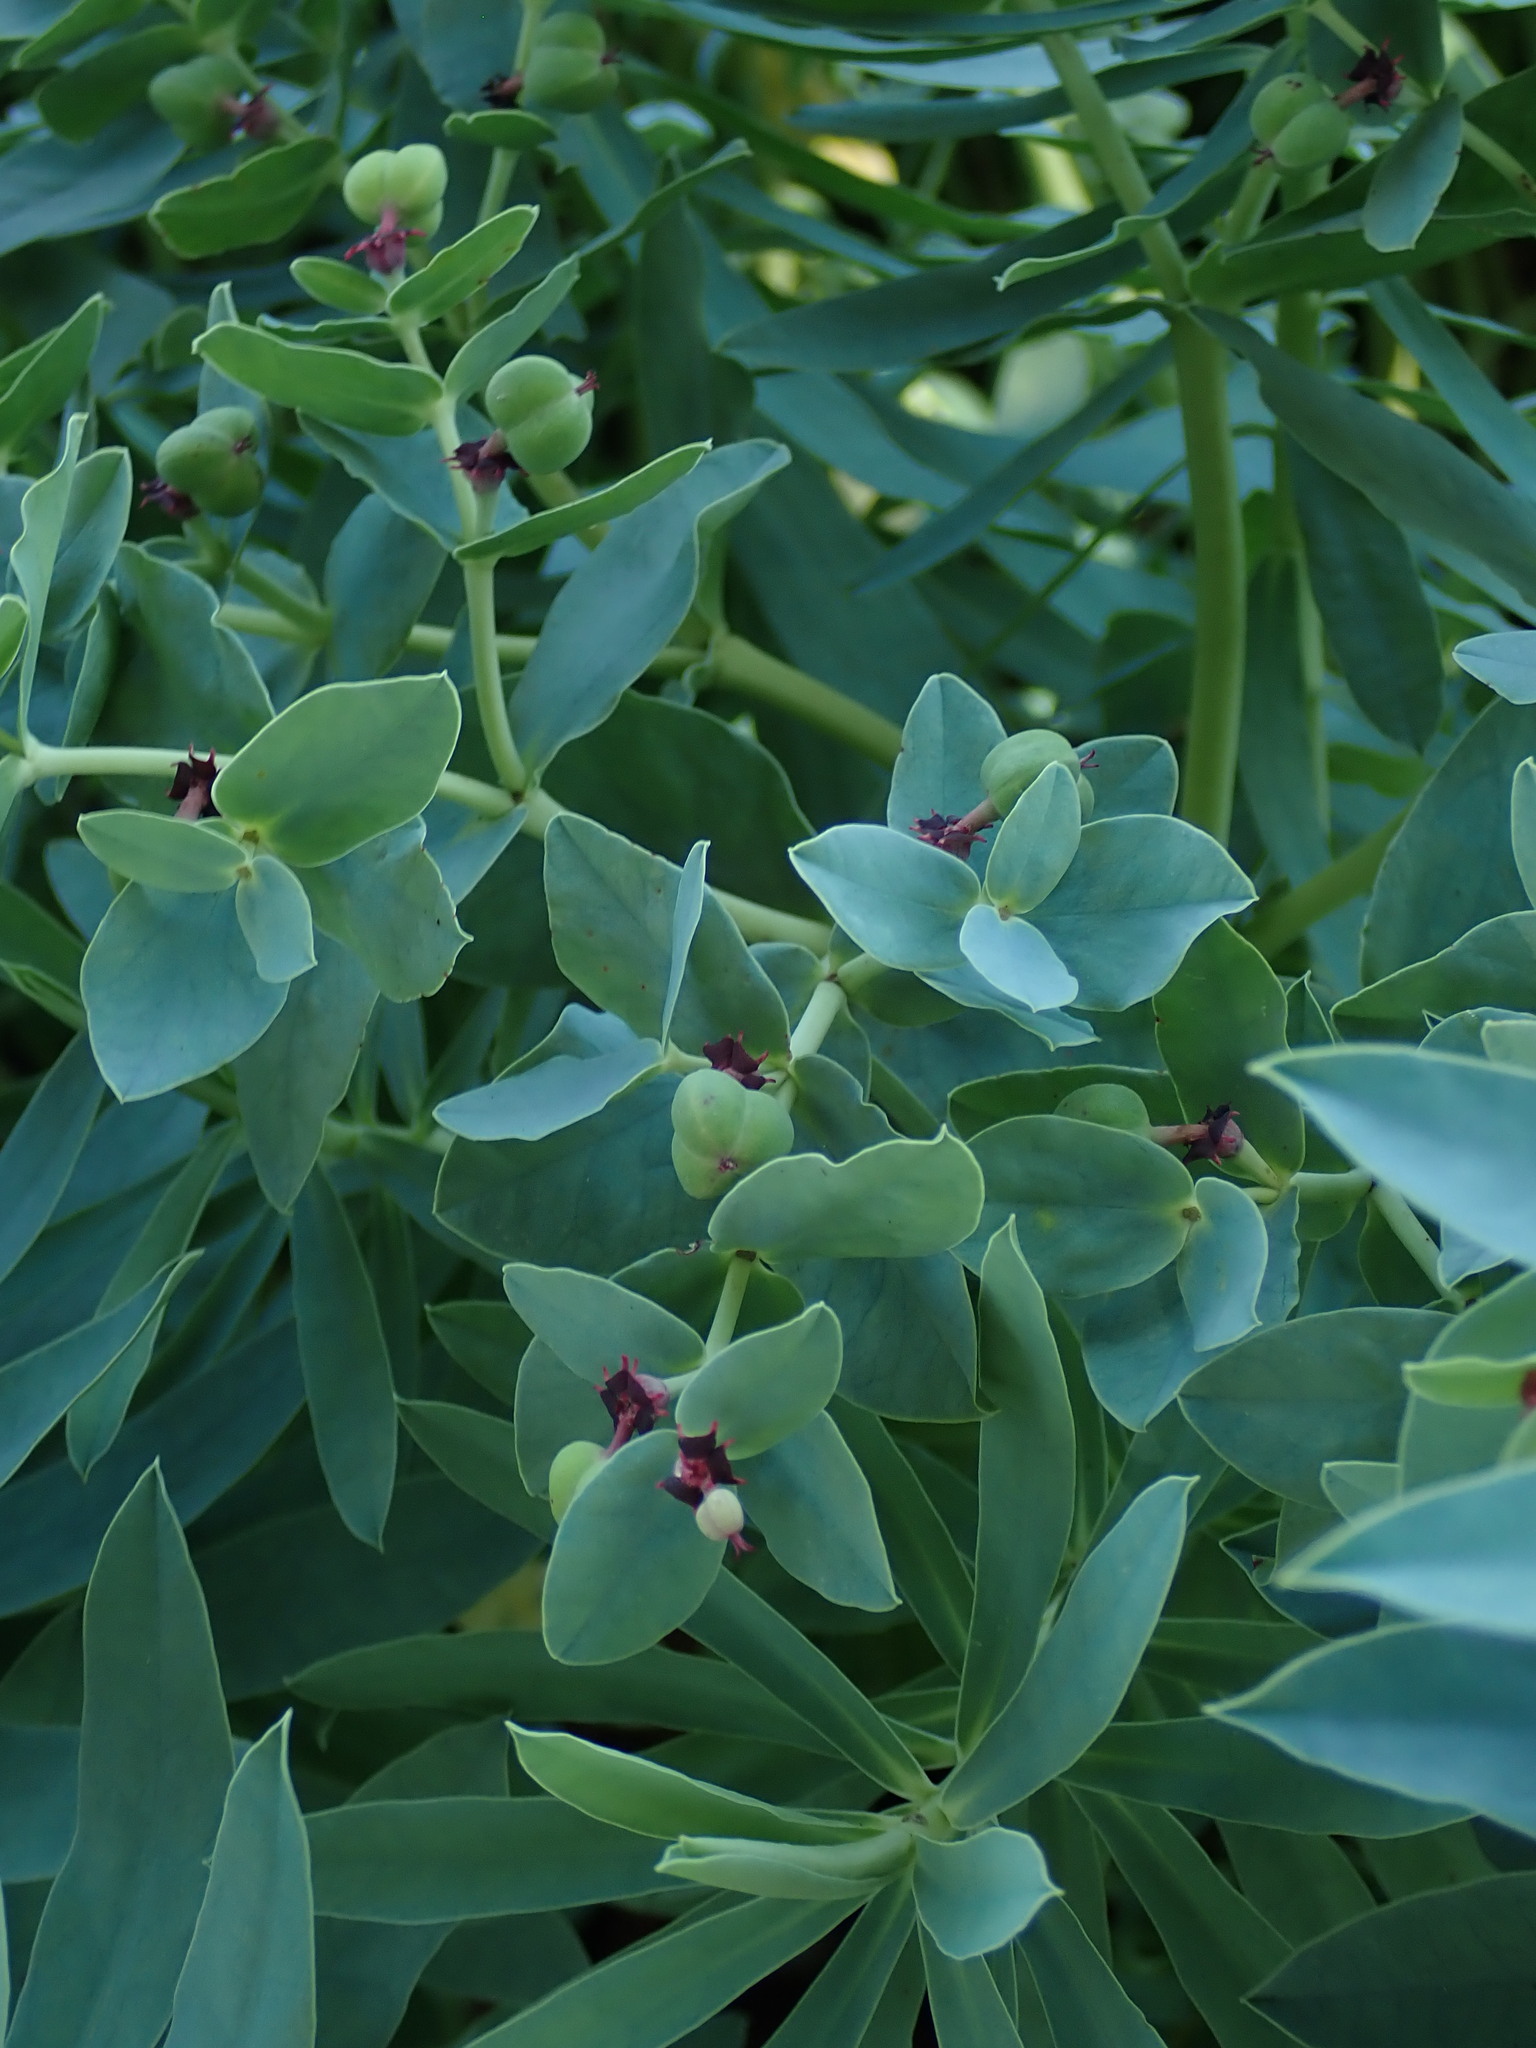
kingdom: Plantae
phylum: Tracheophyta
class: Magnoliopsida
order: Malpighiales
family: Euphorbiaceae
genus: Euphorbia
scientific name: Euphorbia glauca
